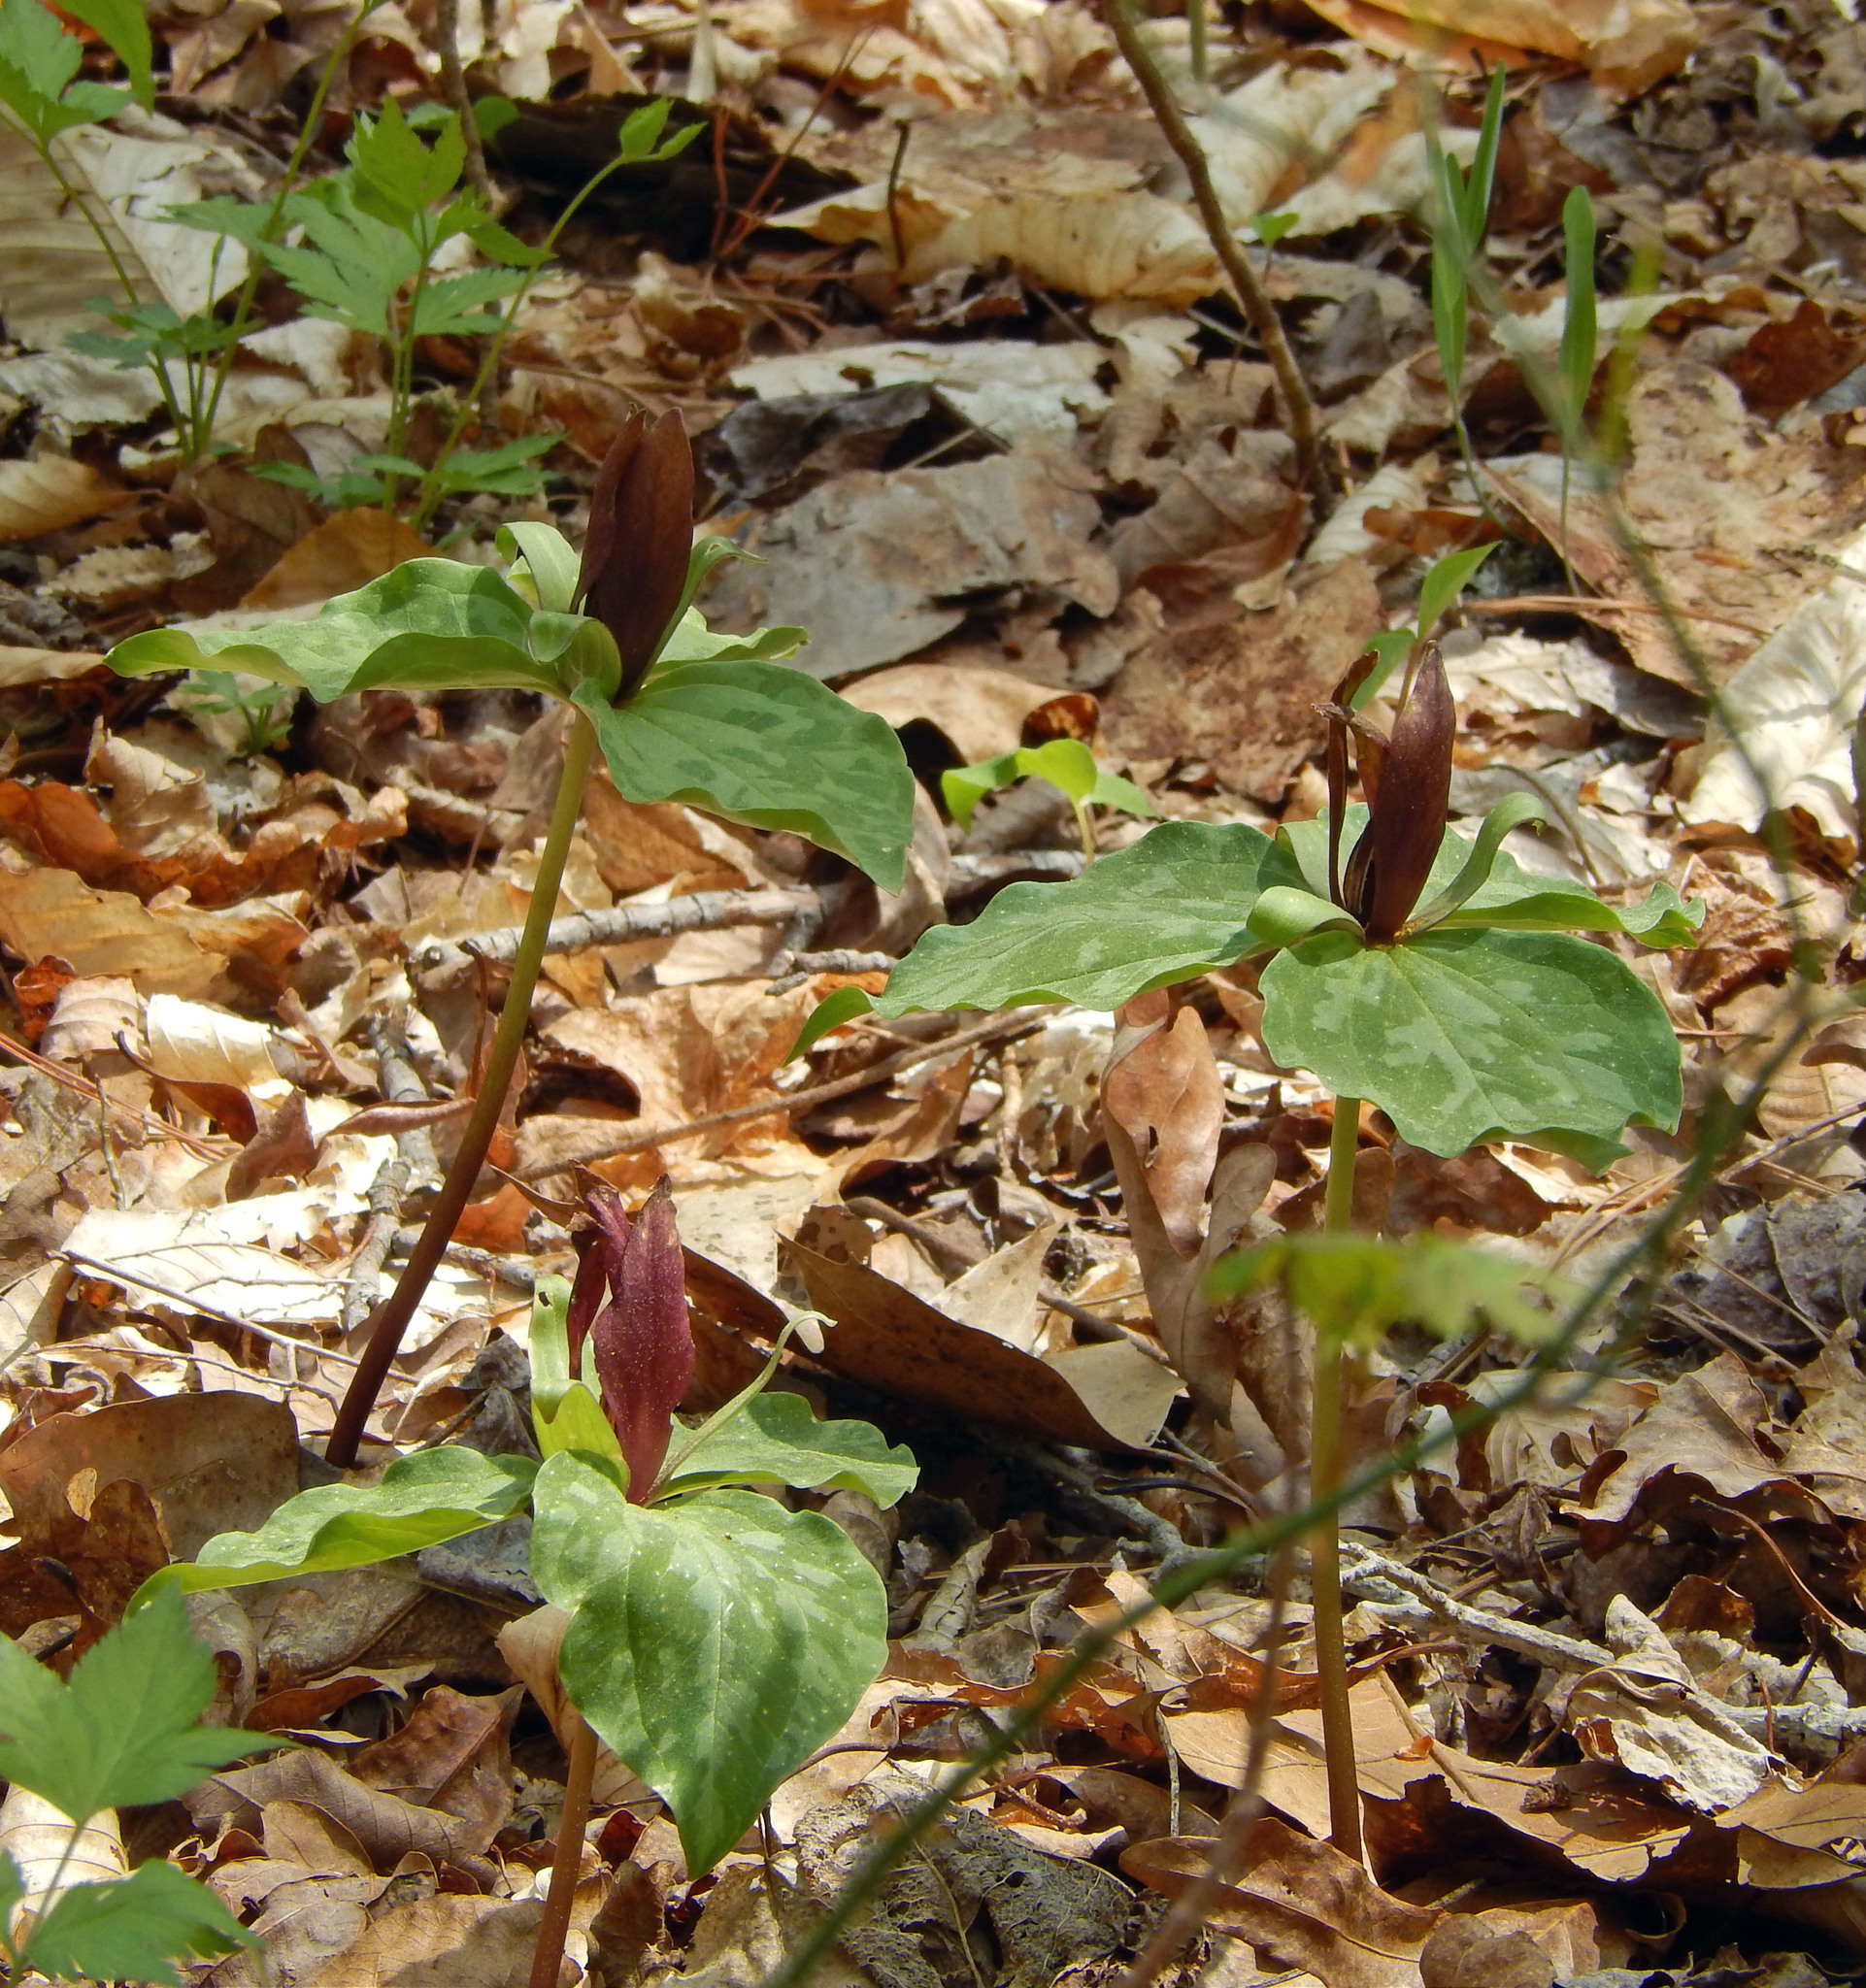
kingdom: Plantae
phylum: Tracheophyta
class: Liliopsida
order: Liliales
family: Melanthiaceae
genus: Trillium
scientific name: Trillium cuneatum
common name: Cuneate trillium
